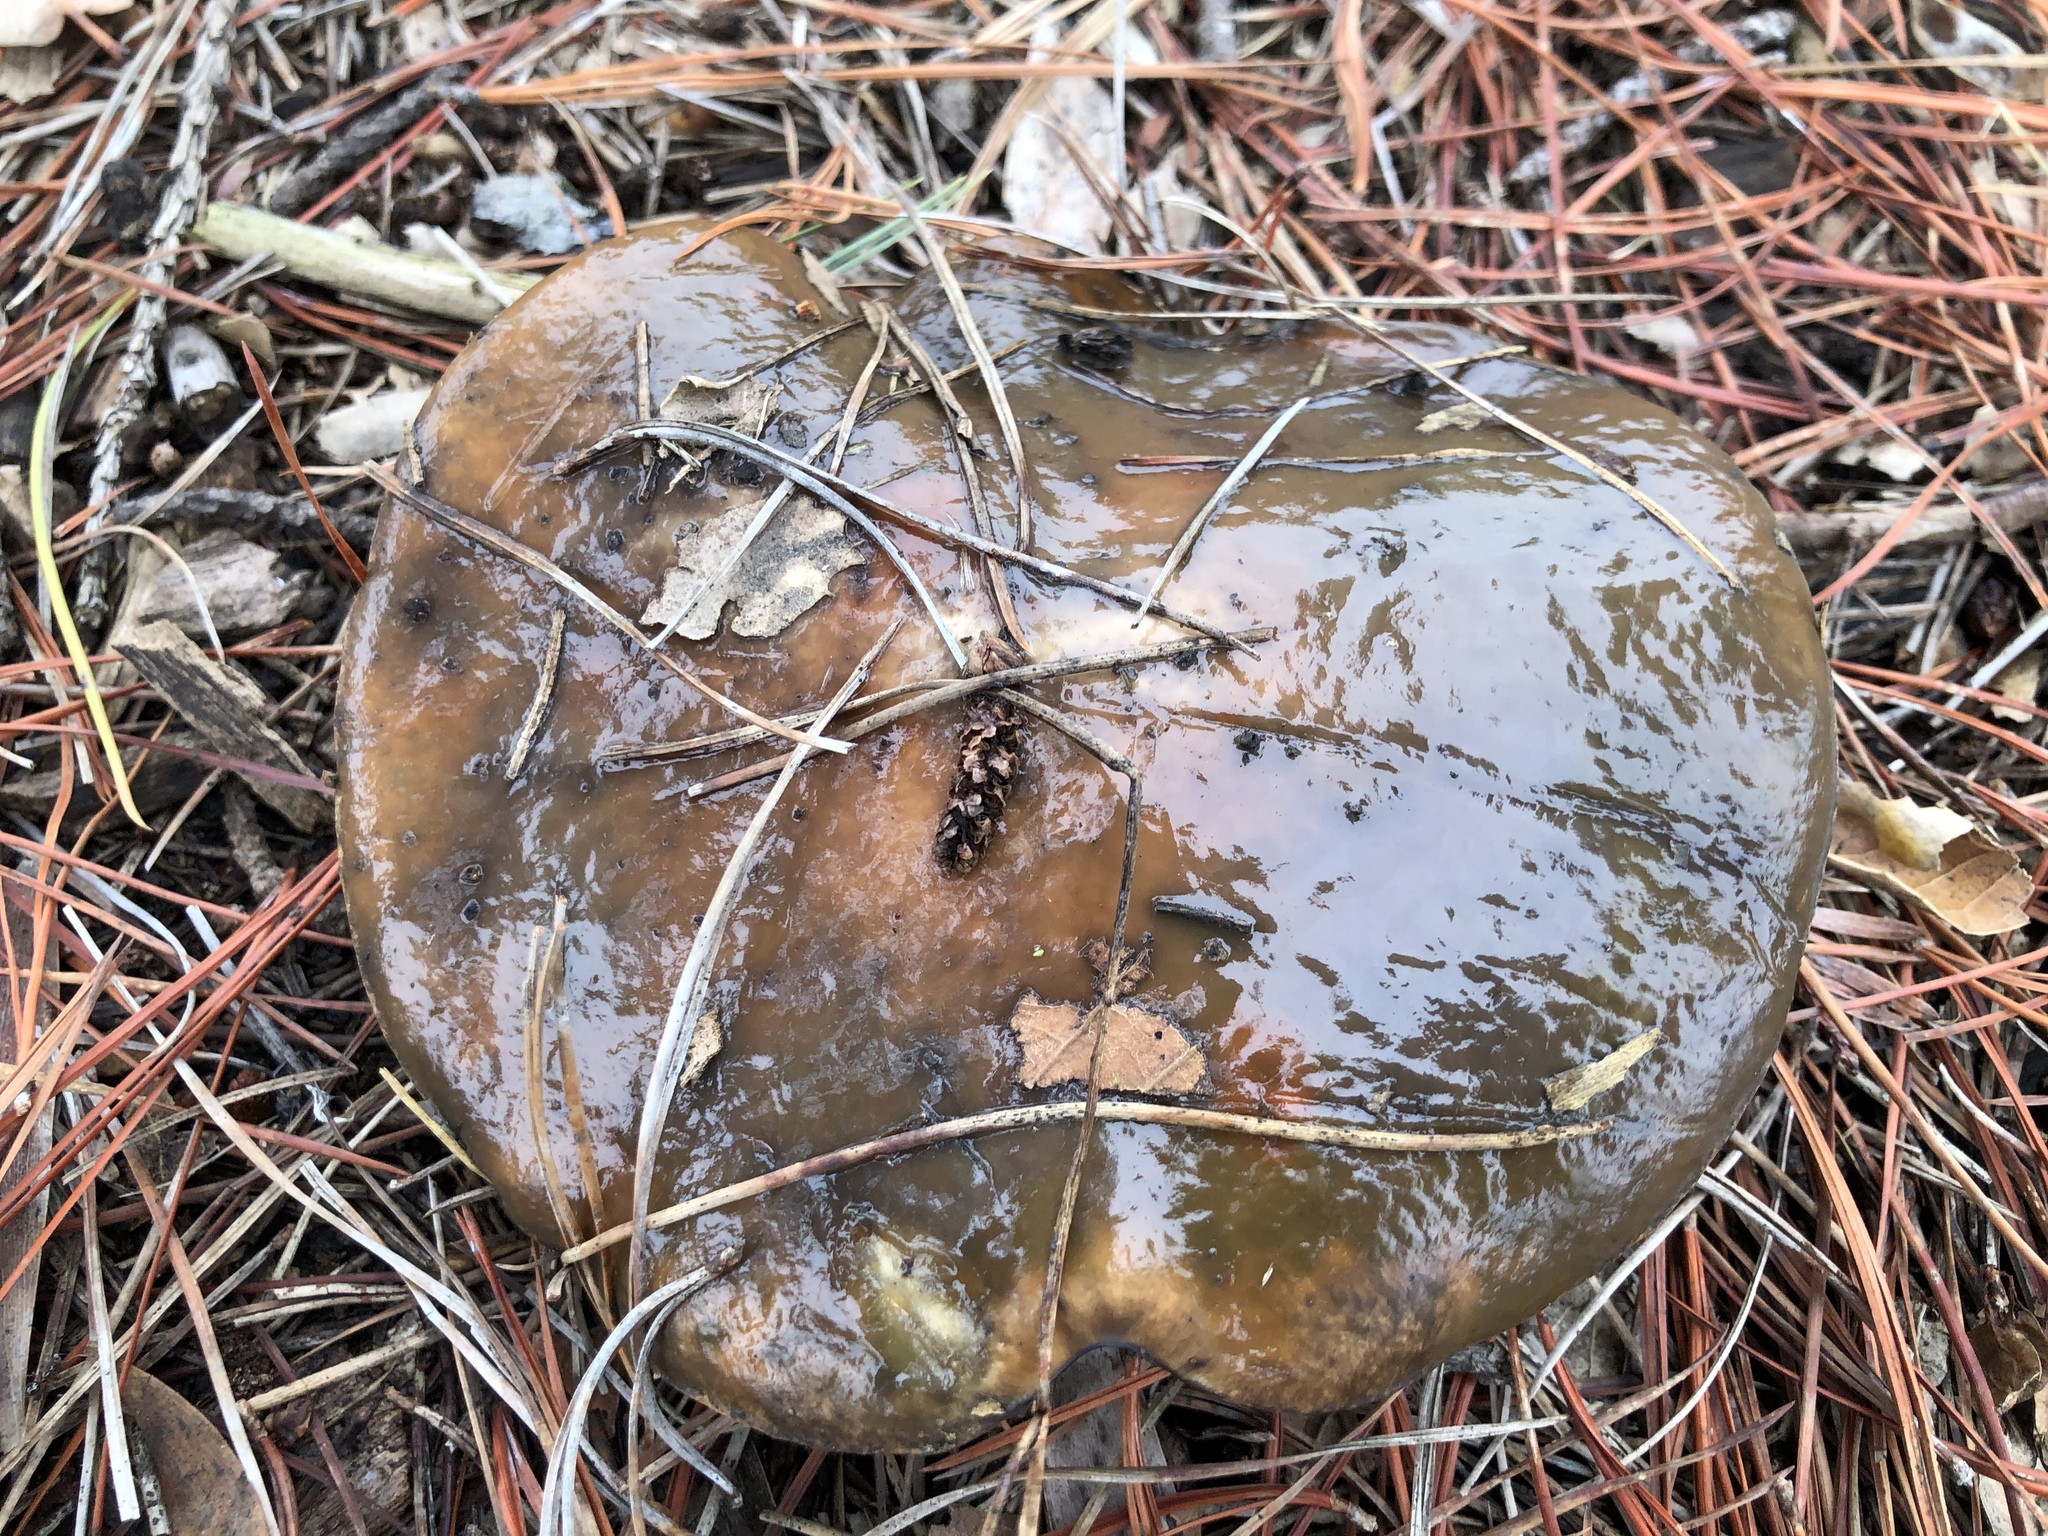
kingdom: Fungi
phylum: Basidiomycota
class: Agaricomycetes
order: Boletales
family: Suillaceae
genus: Suillus
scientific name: Suillus pungens
